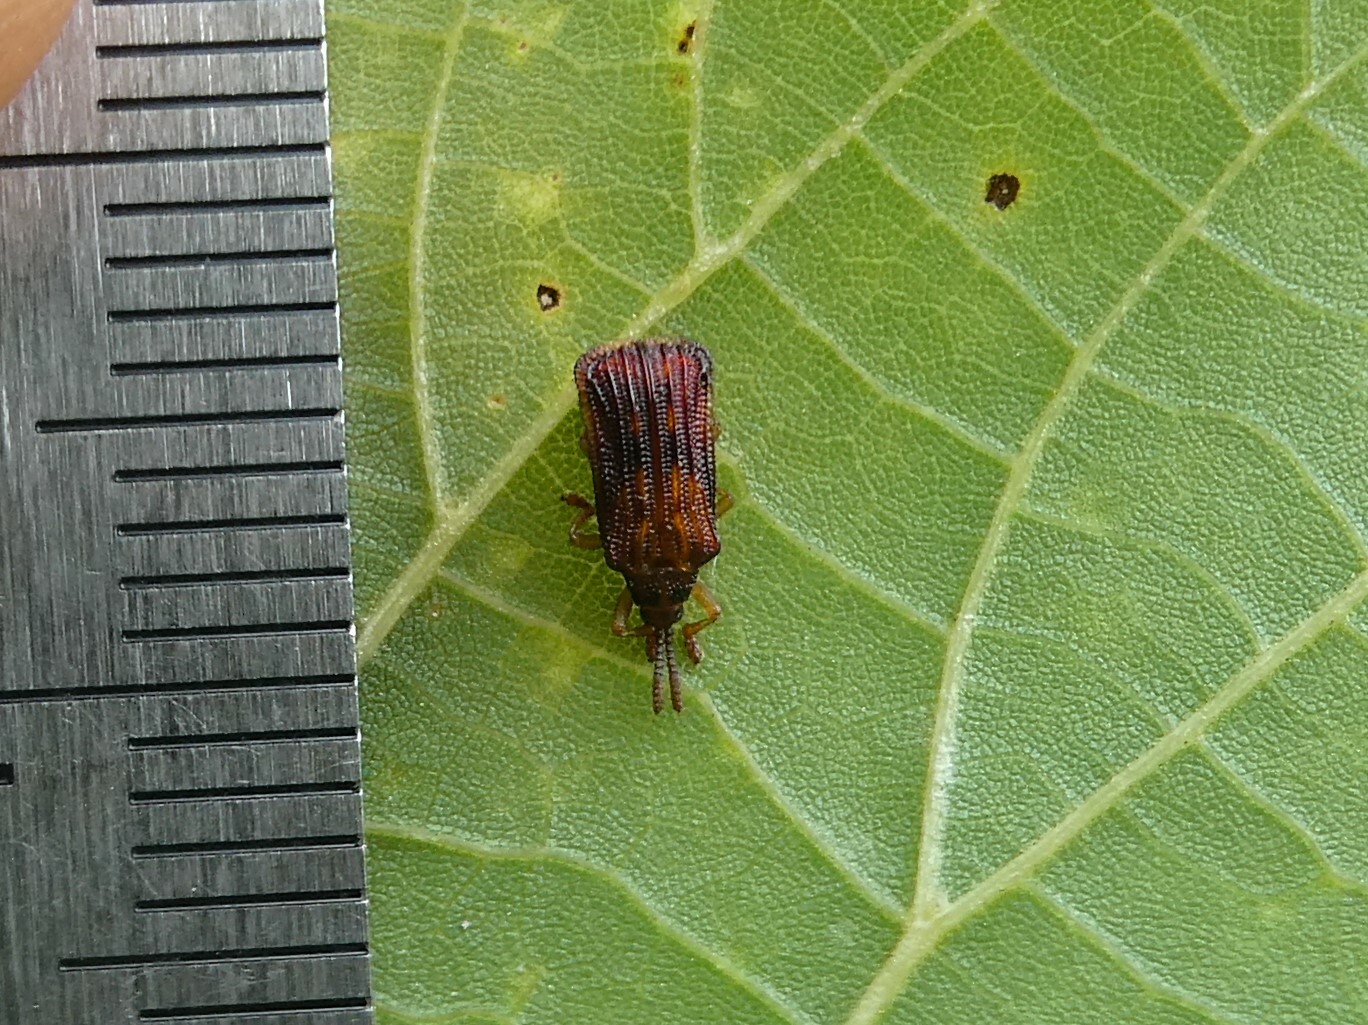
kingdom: Animalia
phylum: Arthropoda
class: Insecta
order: Coleoptera
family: Chrysomelidae
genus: Baliosus
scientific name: Baliosus nervosus
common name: Basswood leaf miner
